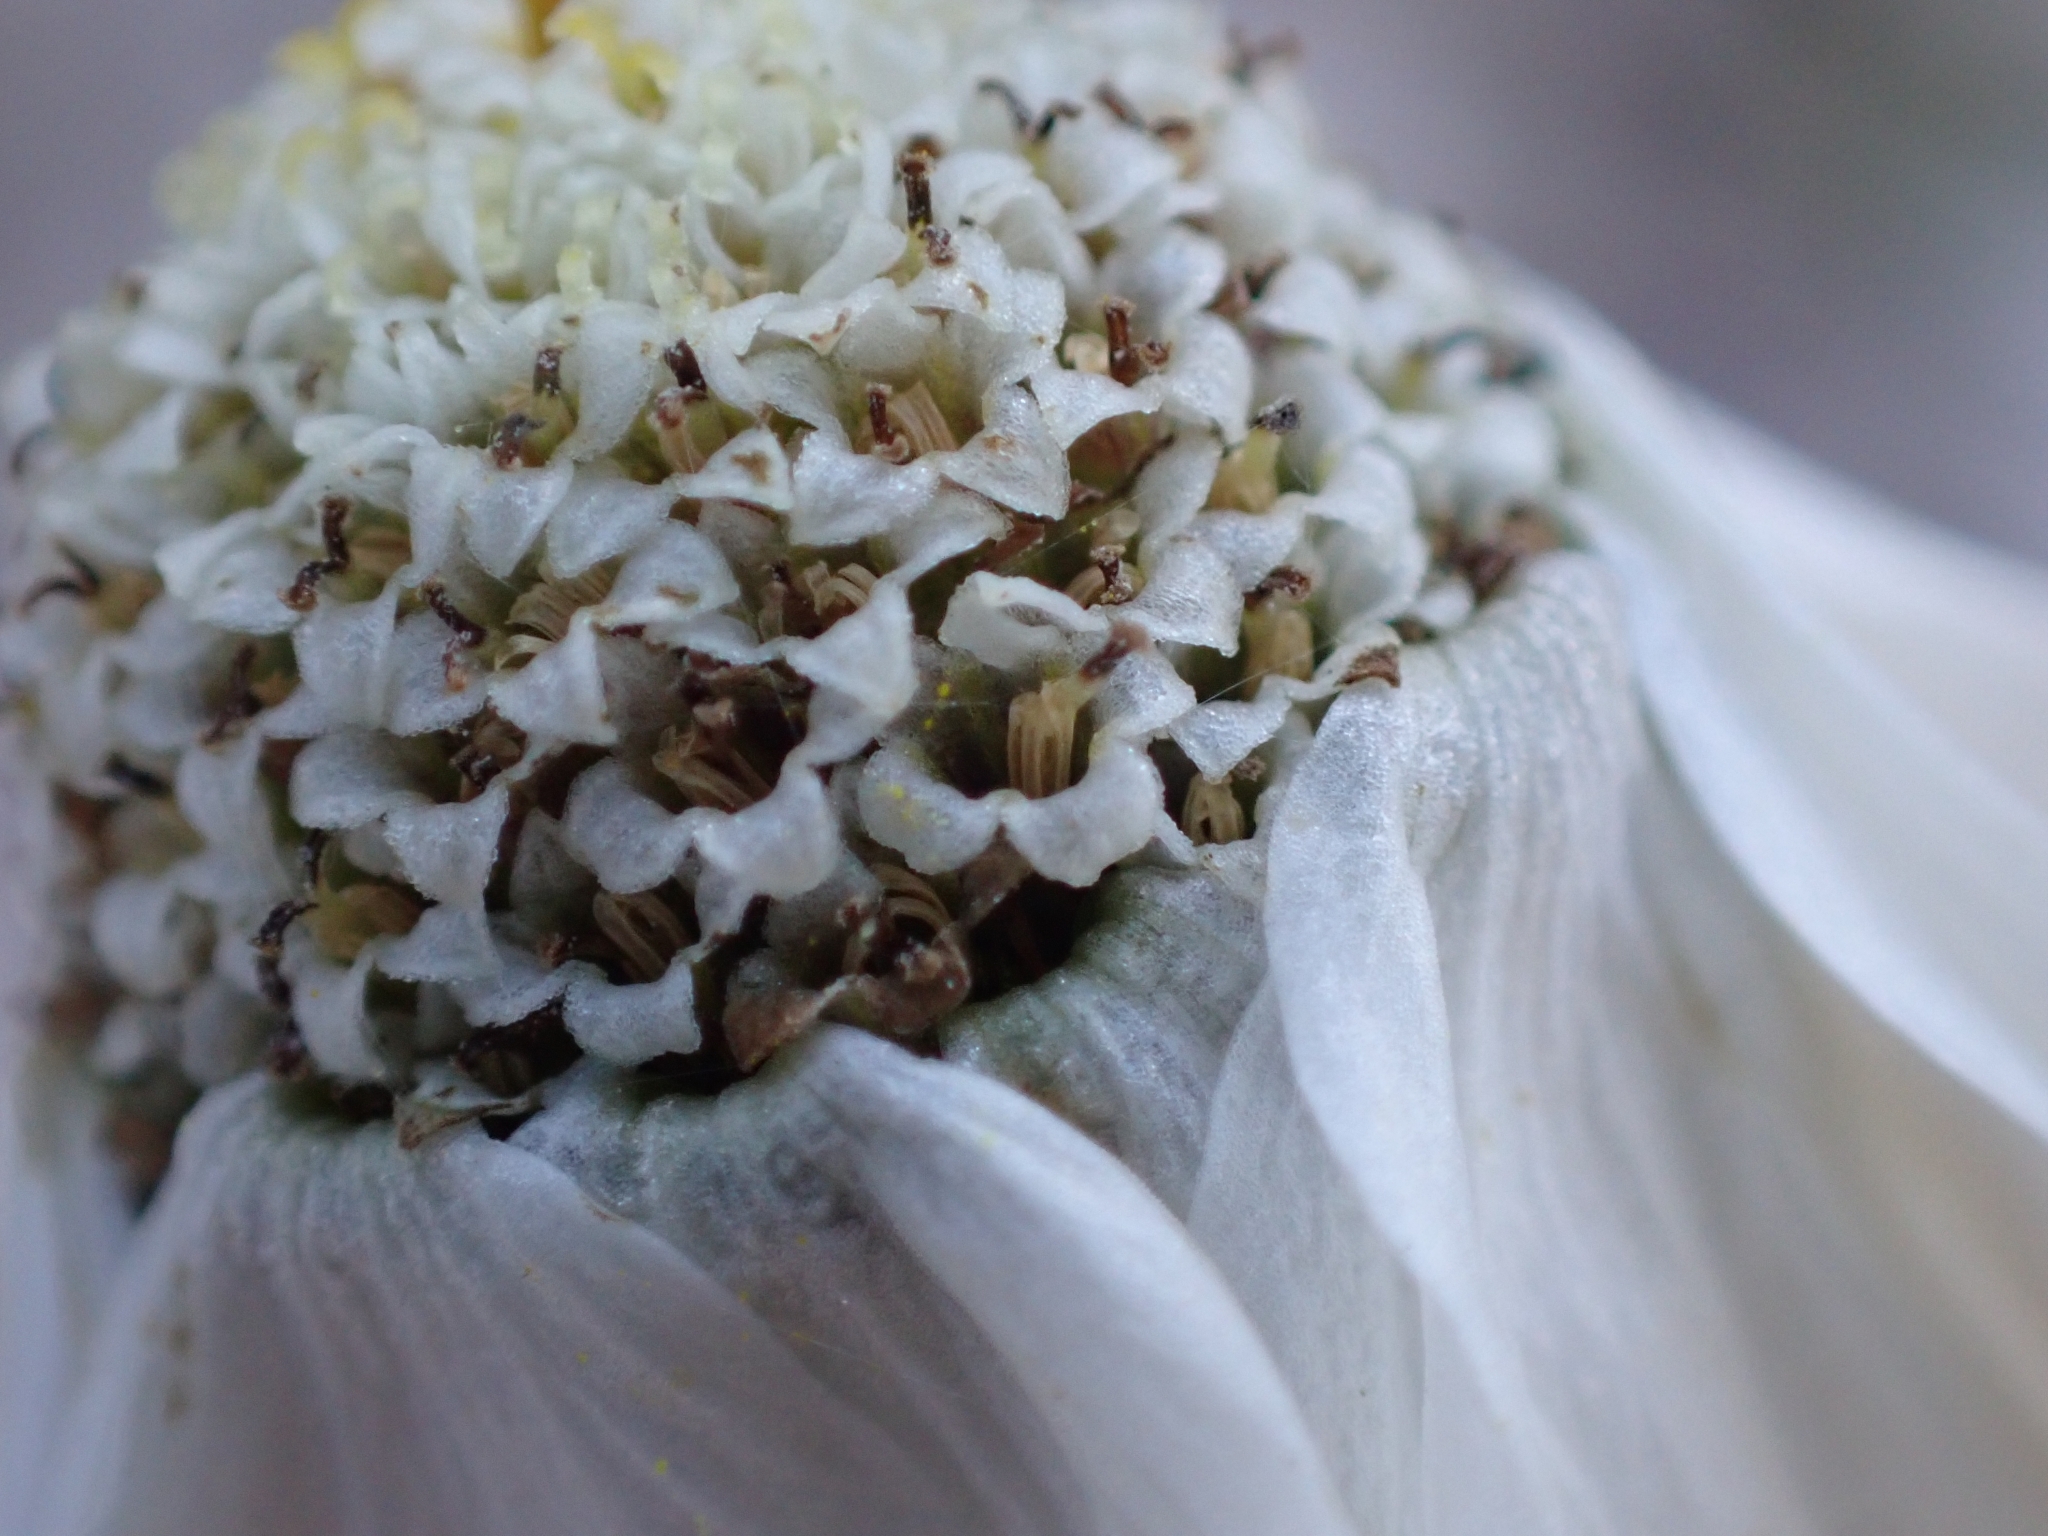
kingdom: Plantae
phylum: Tracheophyta
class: Magnoliopsida
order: Asterales
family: Asteraceae
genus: Achillea
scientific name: Achillea oxyloba
